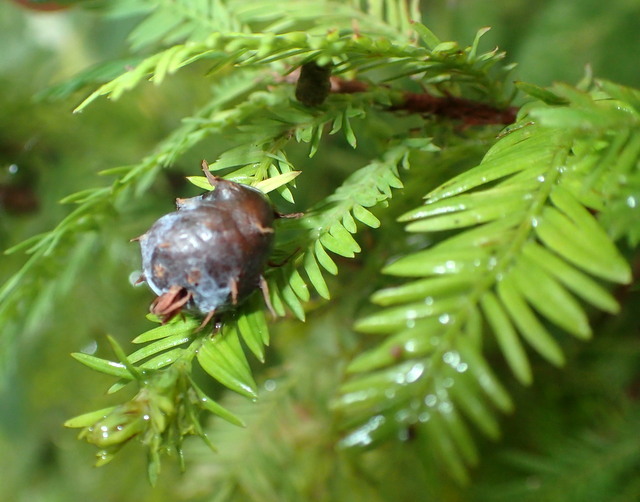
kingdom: Animalia
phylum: Arthropoda
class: Insecta
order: Diptera
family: Cecidomyiidae
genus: Taxodiomyia
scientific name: Taxodiomyia cupressiananassa
